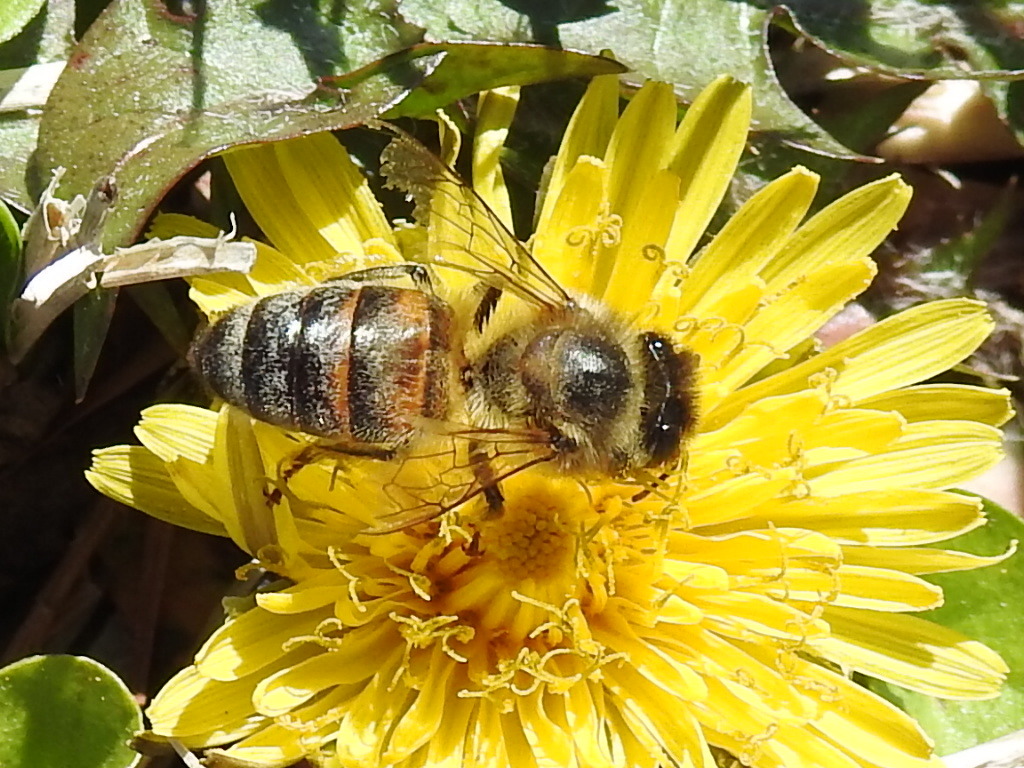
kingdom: Animalia
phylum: Arthropoda
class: Insecta
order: Hymenoptera
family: Apidae
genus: Apis
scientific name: Apis mellifera
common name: Honey bee
